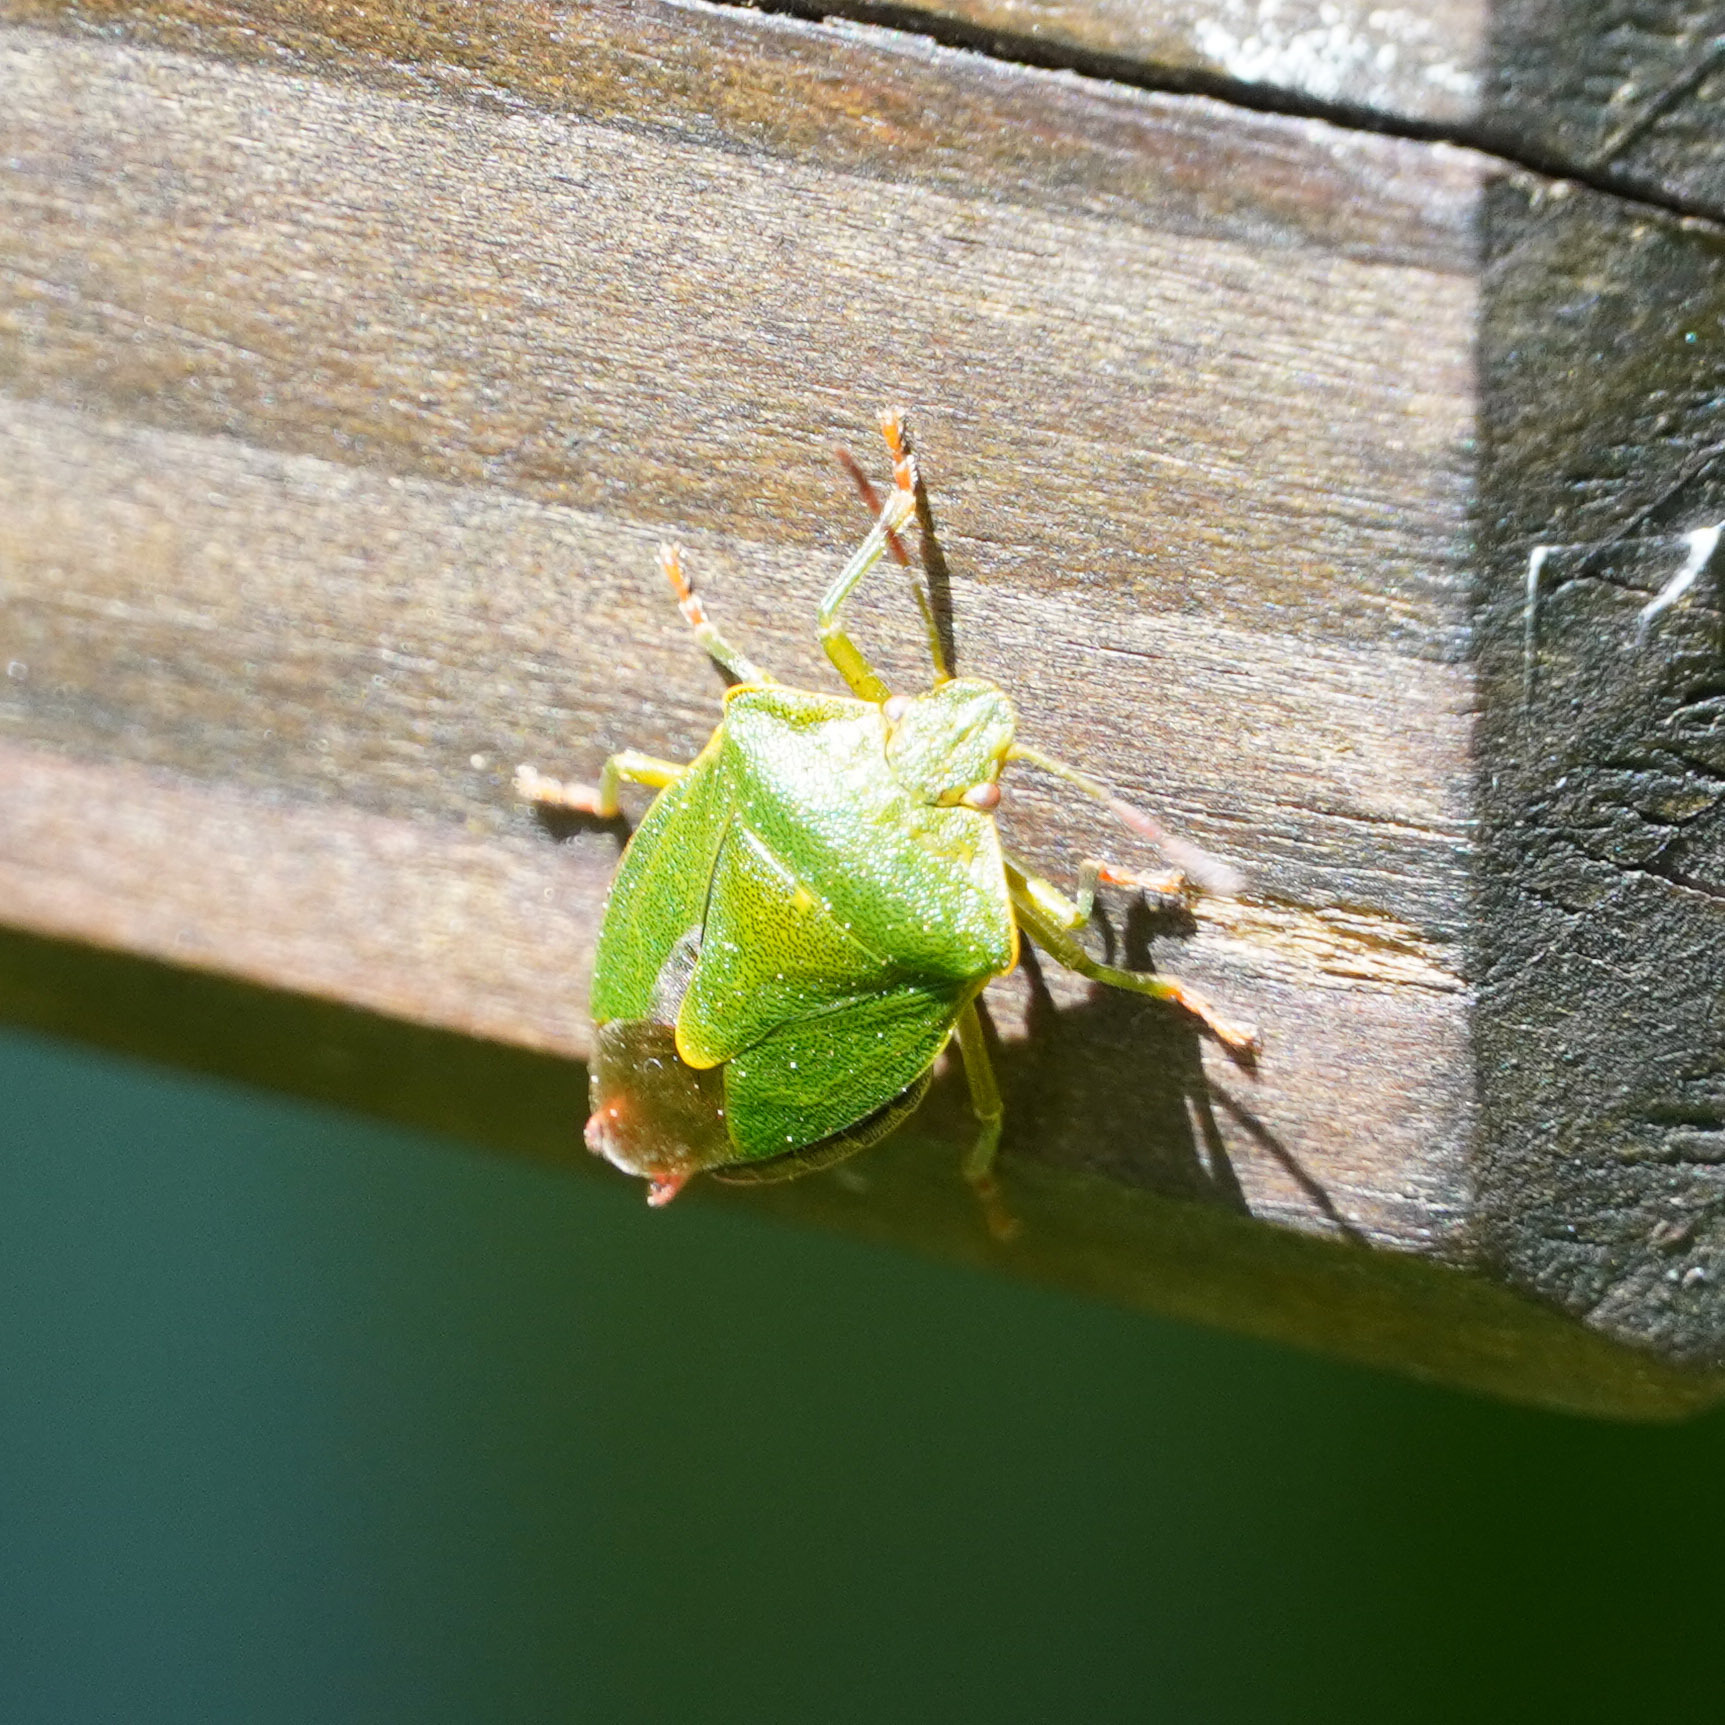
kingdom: Animalia
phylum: Arthropoda
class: Insecta
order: Hemiptera
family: Pentatomidae
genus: Palomena
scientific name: Palomena prasina
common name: Green shieldbug
